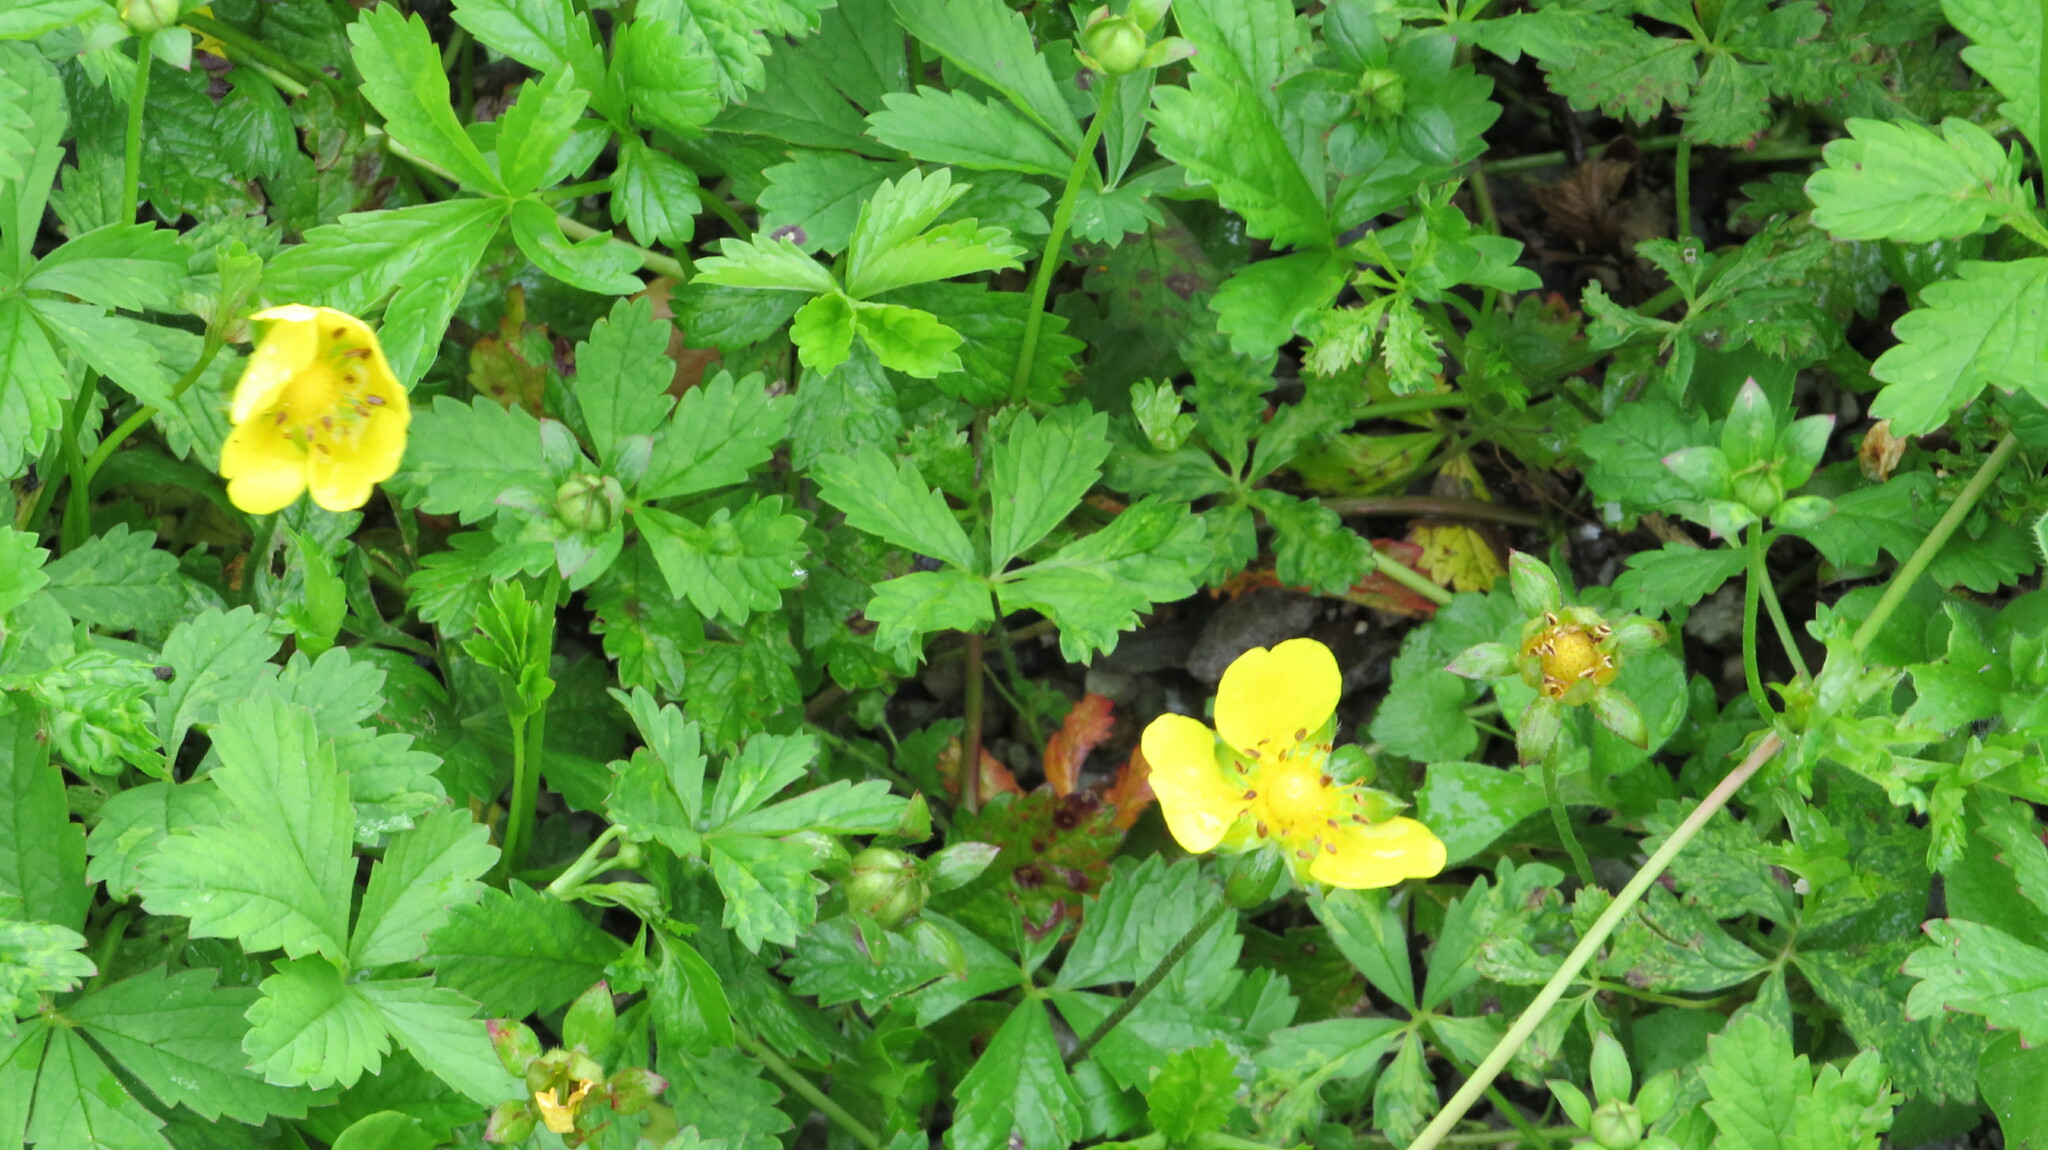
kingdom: Plantae
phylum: Tracheophyta
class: Magnoliopsida
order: Rosales
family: Rosaceae
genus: Potentilla
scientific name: Potentilla reptans
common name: Creeping cinquefoil
